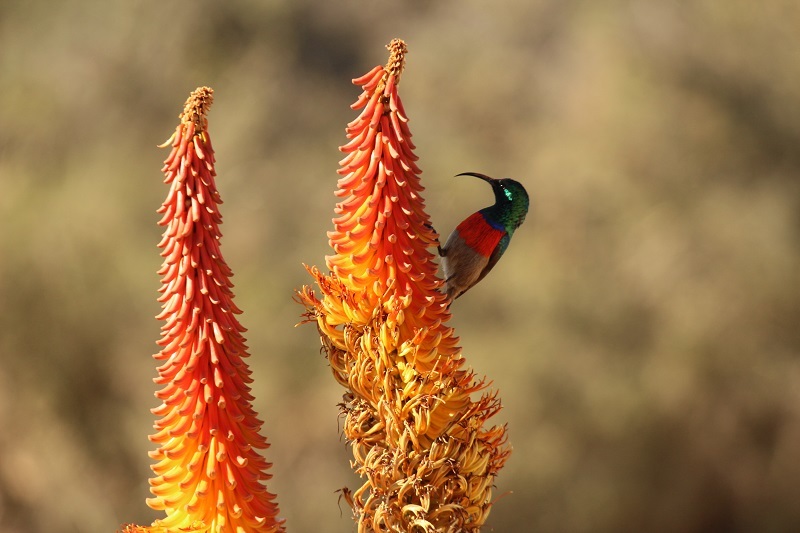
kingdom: Animalia
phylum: Chordata
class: Aves
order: Passeriformes
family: Nectariniidae
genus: Cinnyris
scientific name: Cinnyris afer
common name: Greater double-collared sunbird
